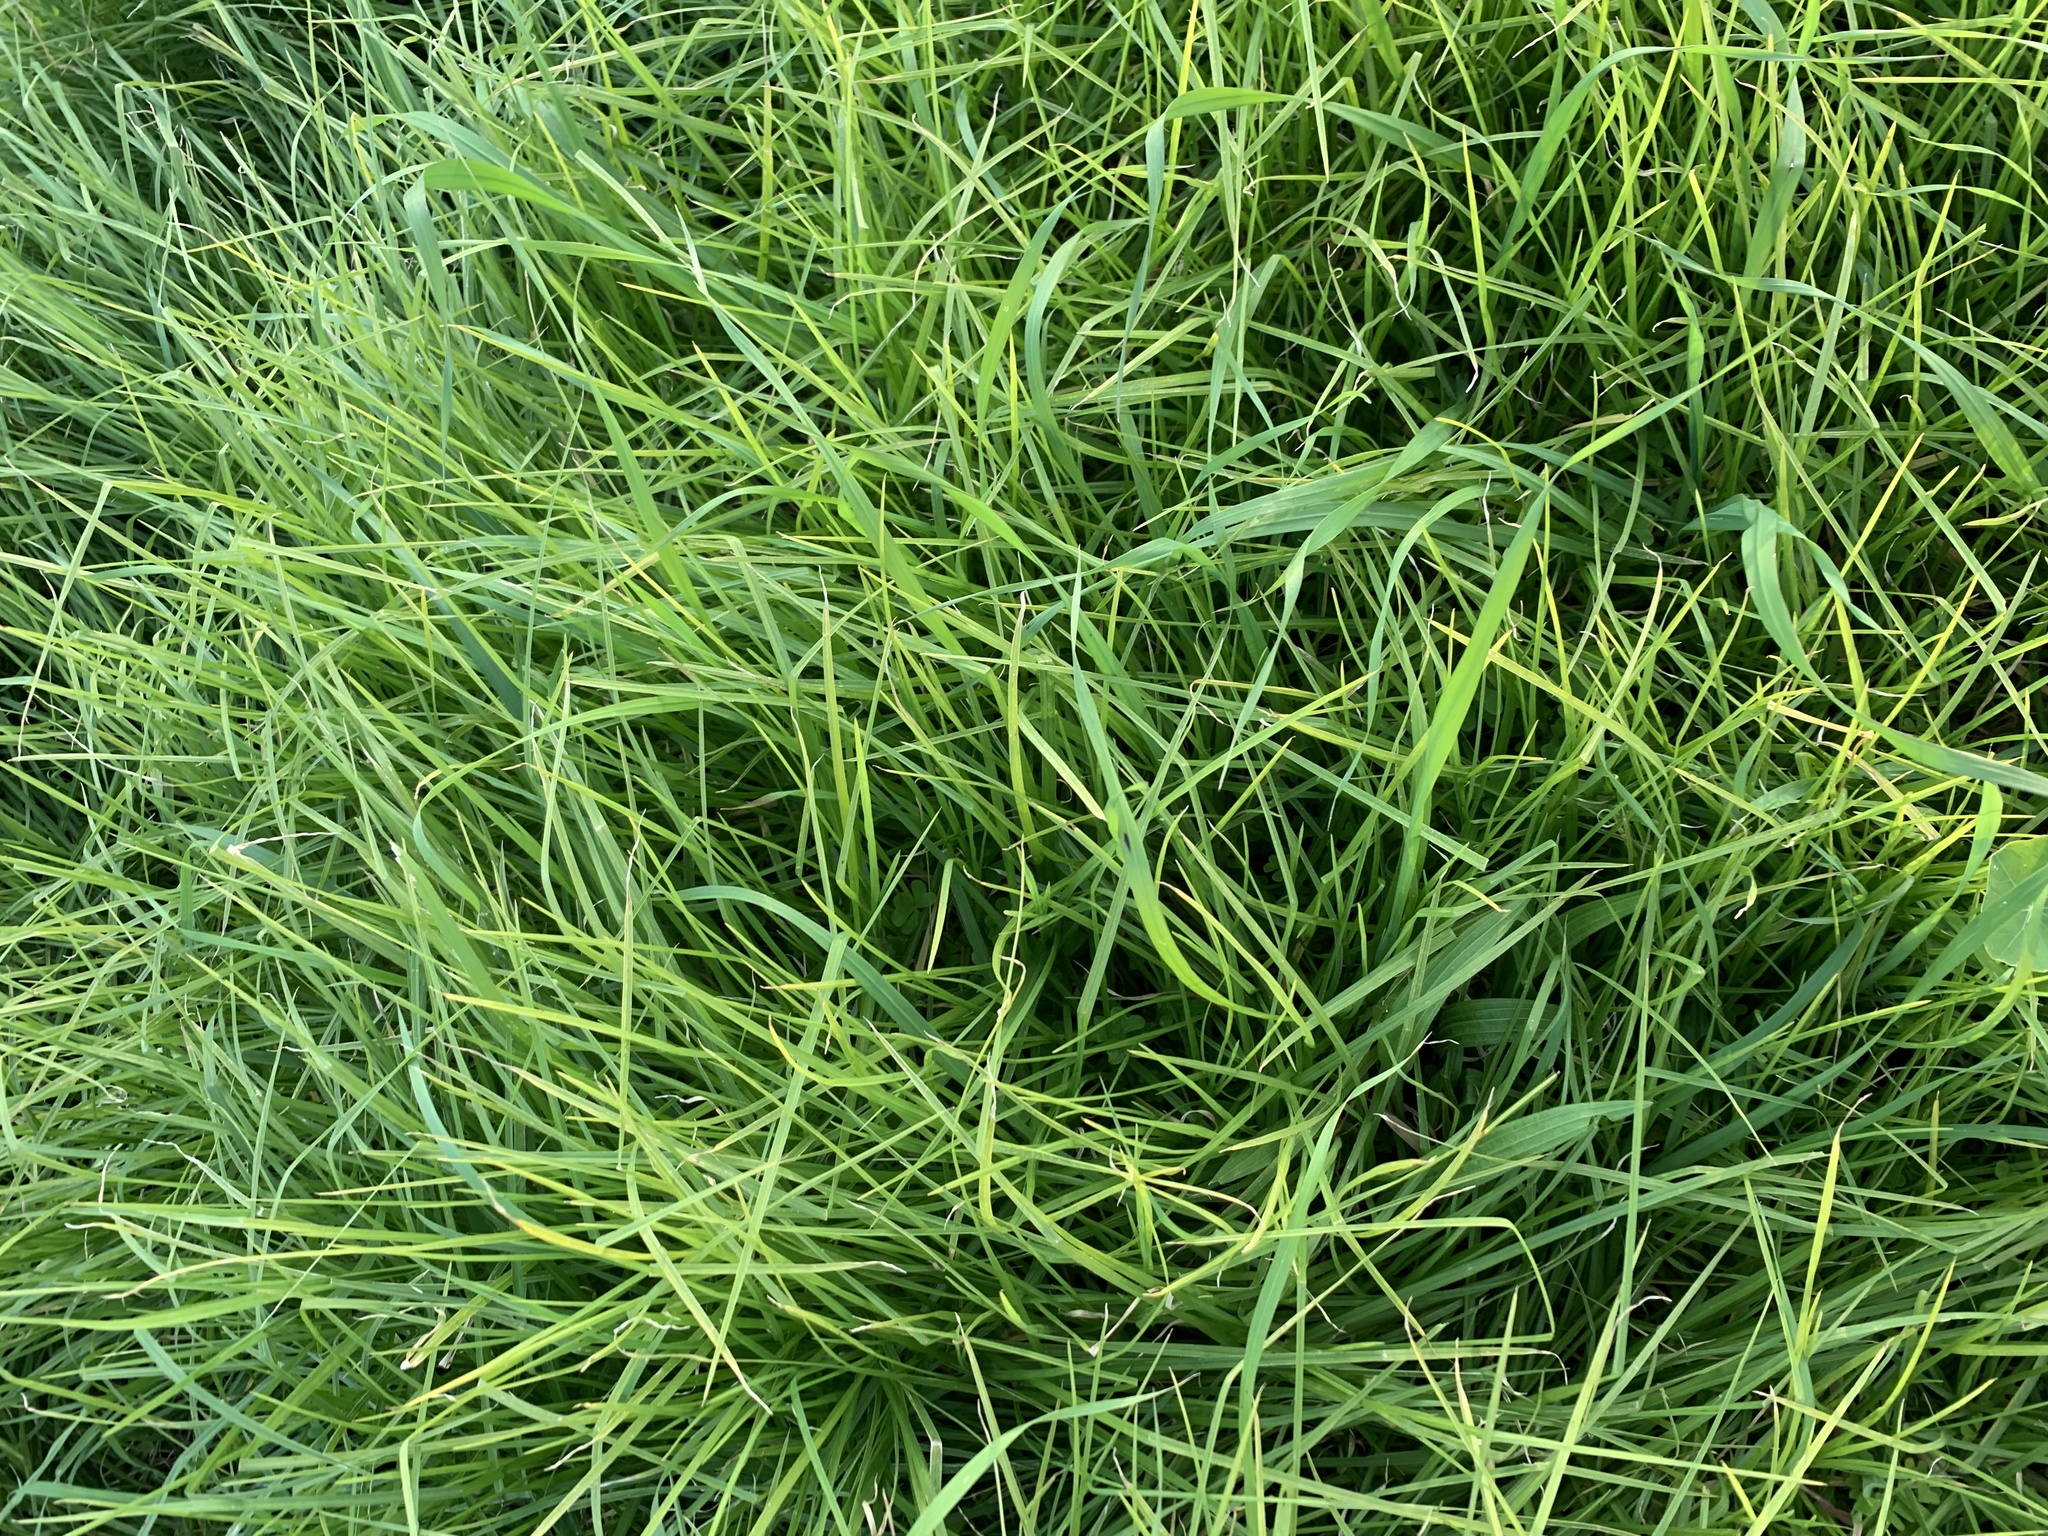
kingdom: Plantae
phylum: Tracheophyta
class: Liliopsida
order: Poales
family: Poaceae
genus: Cenchrus
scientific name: Cenchrus clandestinus
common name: Kikuyugrass
